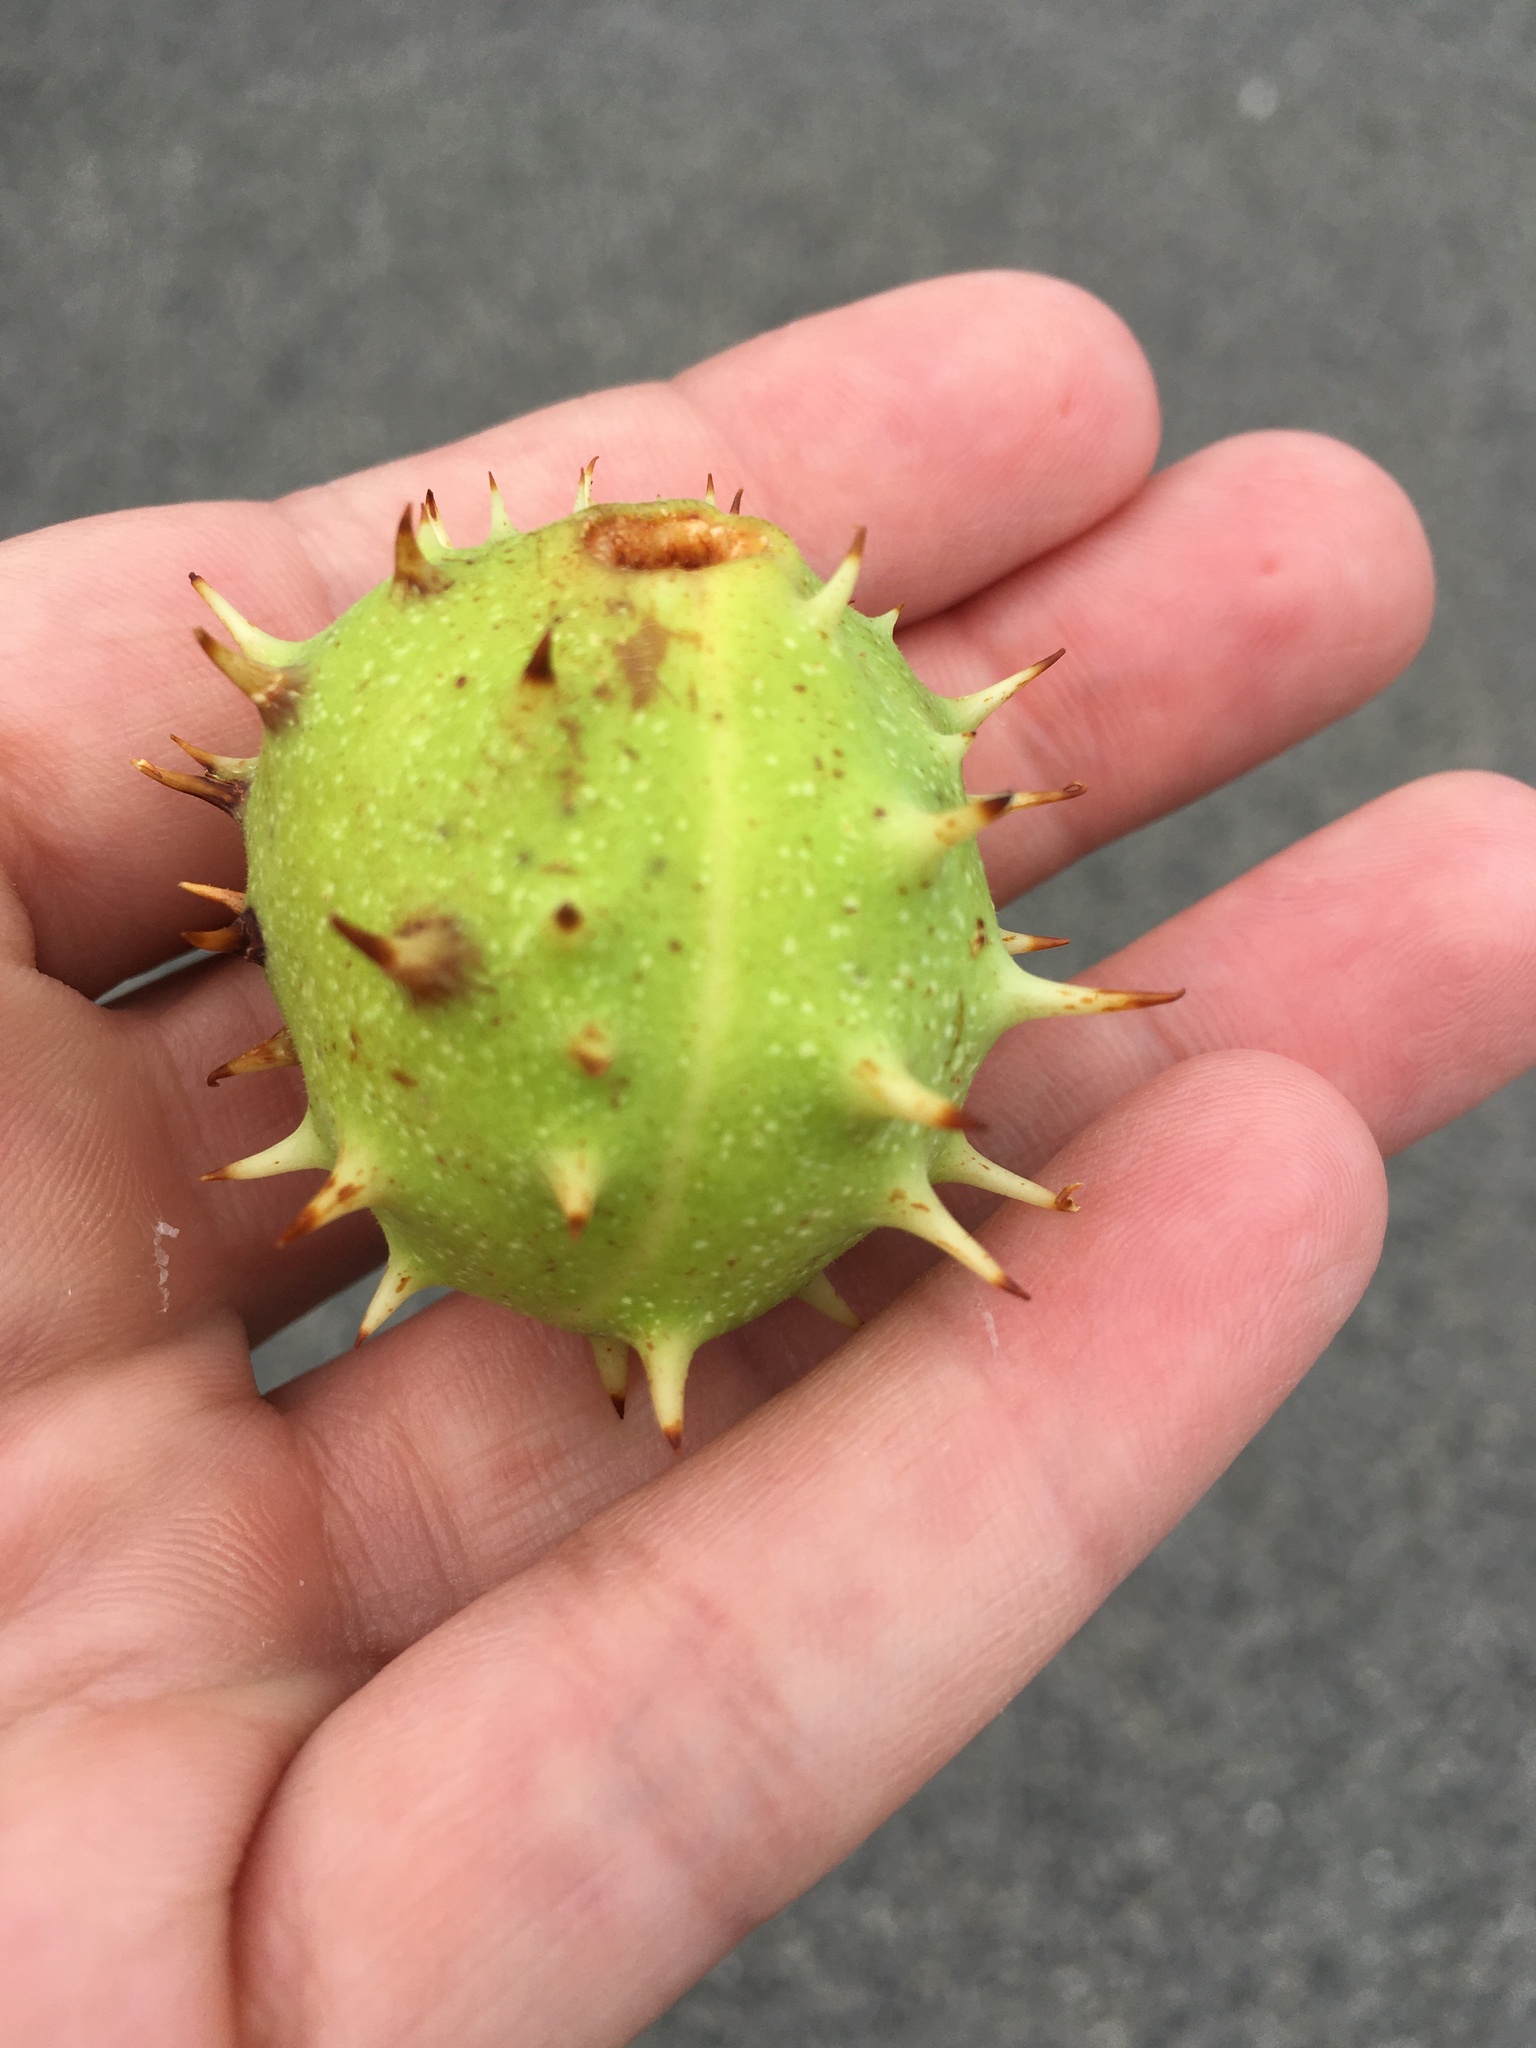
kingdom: Plantae
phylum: Tracheophyta
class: Magnoliopsida
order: Sapindales
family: Sapindaceae
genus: Aesculus
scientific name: Aesculus hippocastanum
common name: Horse-chestnut
